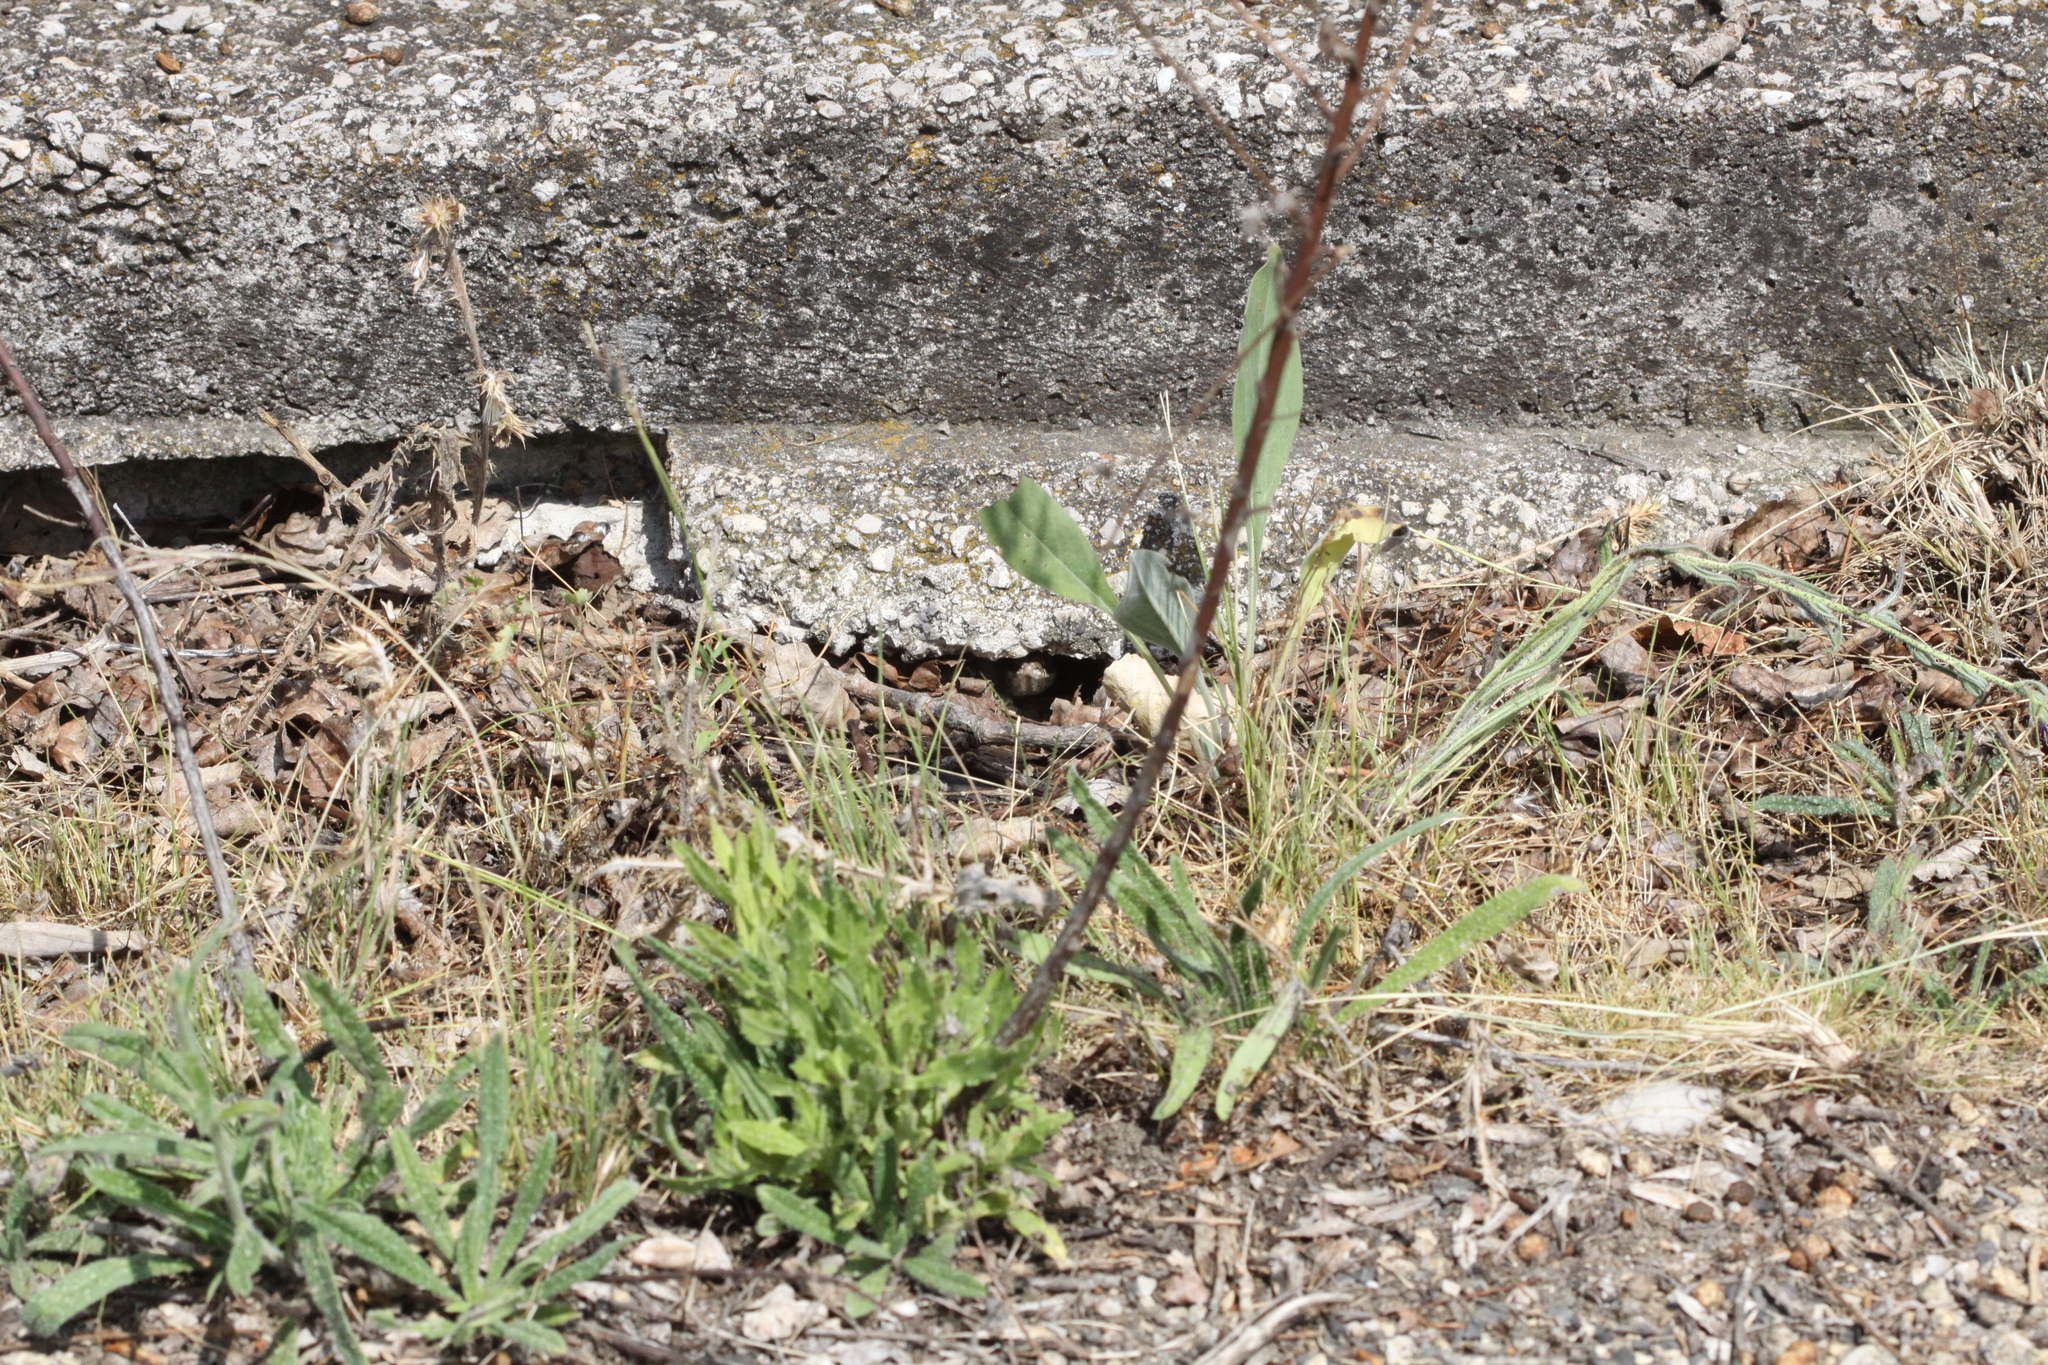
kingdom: Animalia
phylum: Chordata
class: Squamata
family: Psammophiidae
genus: Malpolon
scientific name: Malpolon monspessulanus
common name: Montpellier snake
